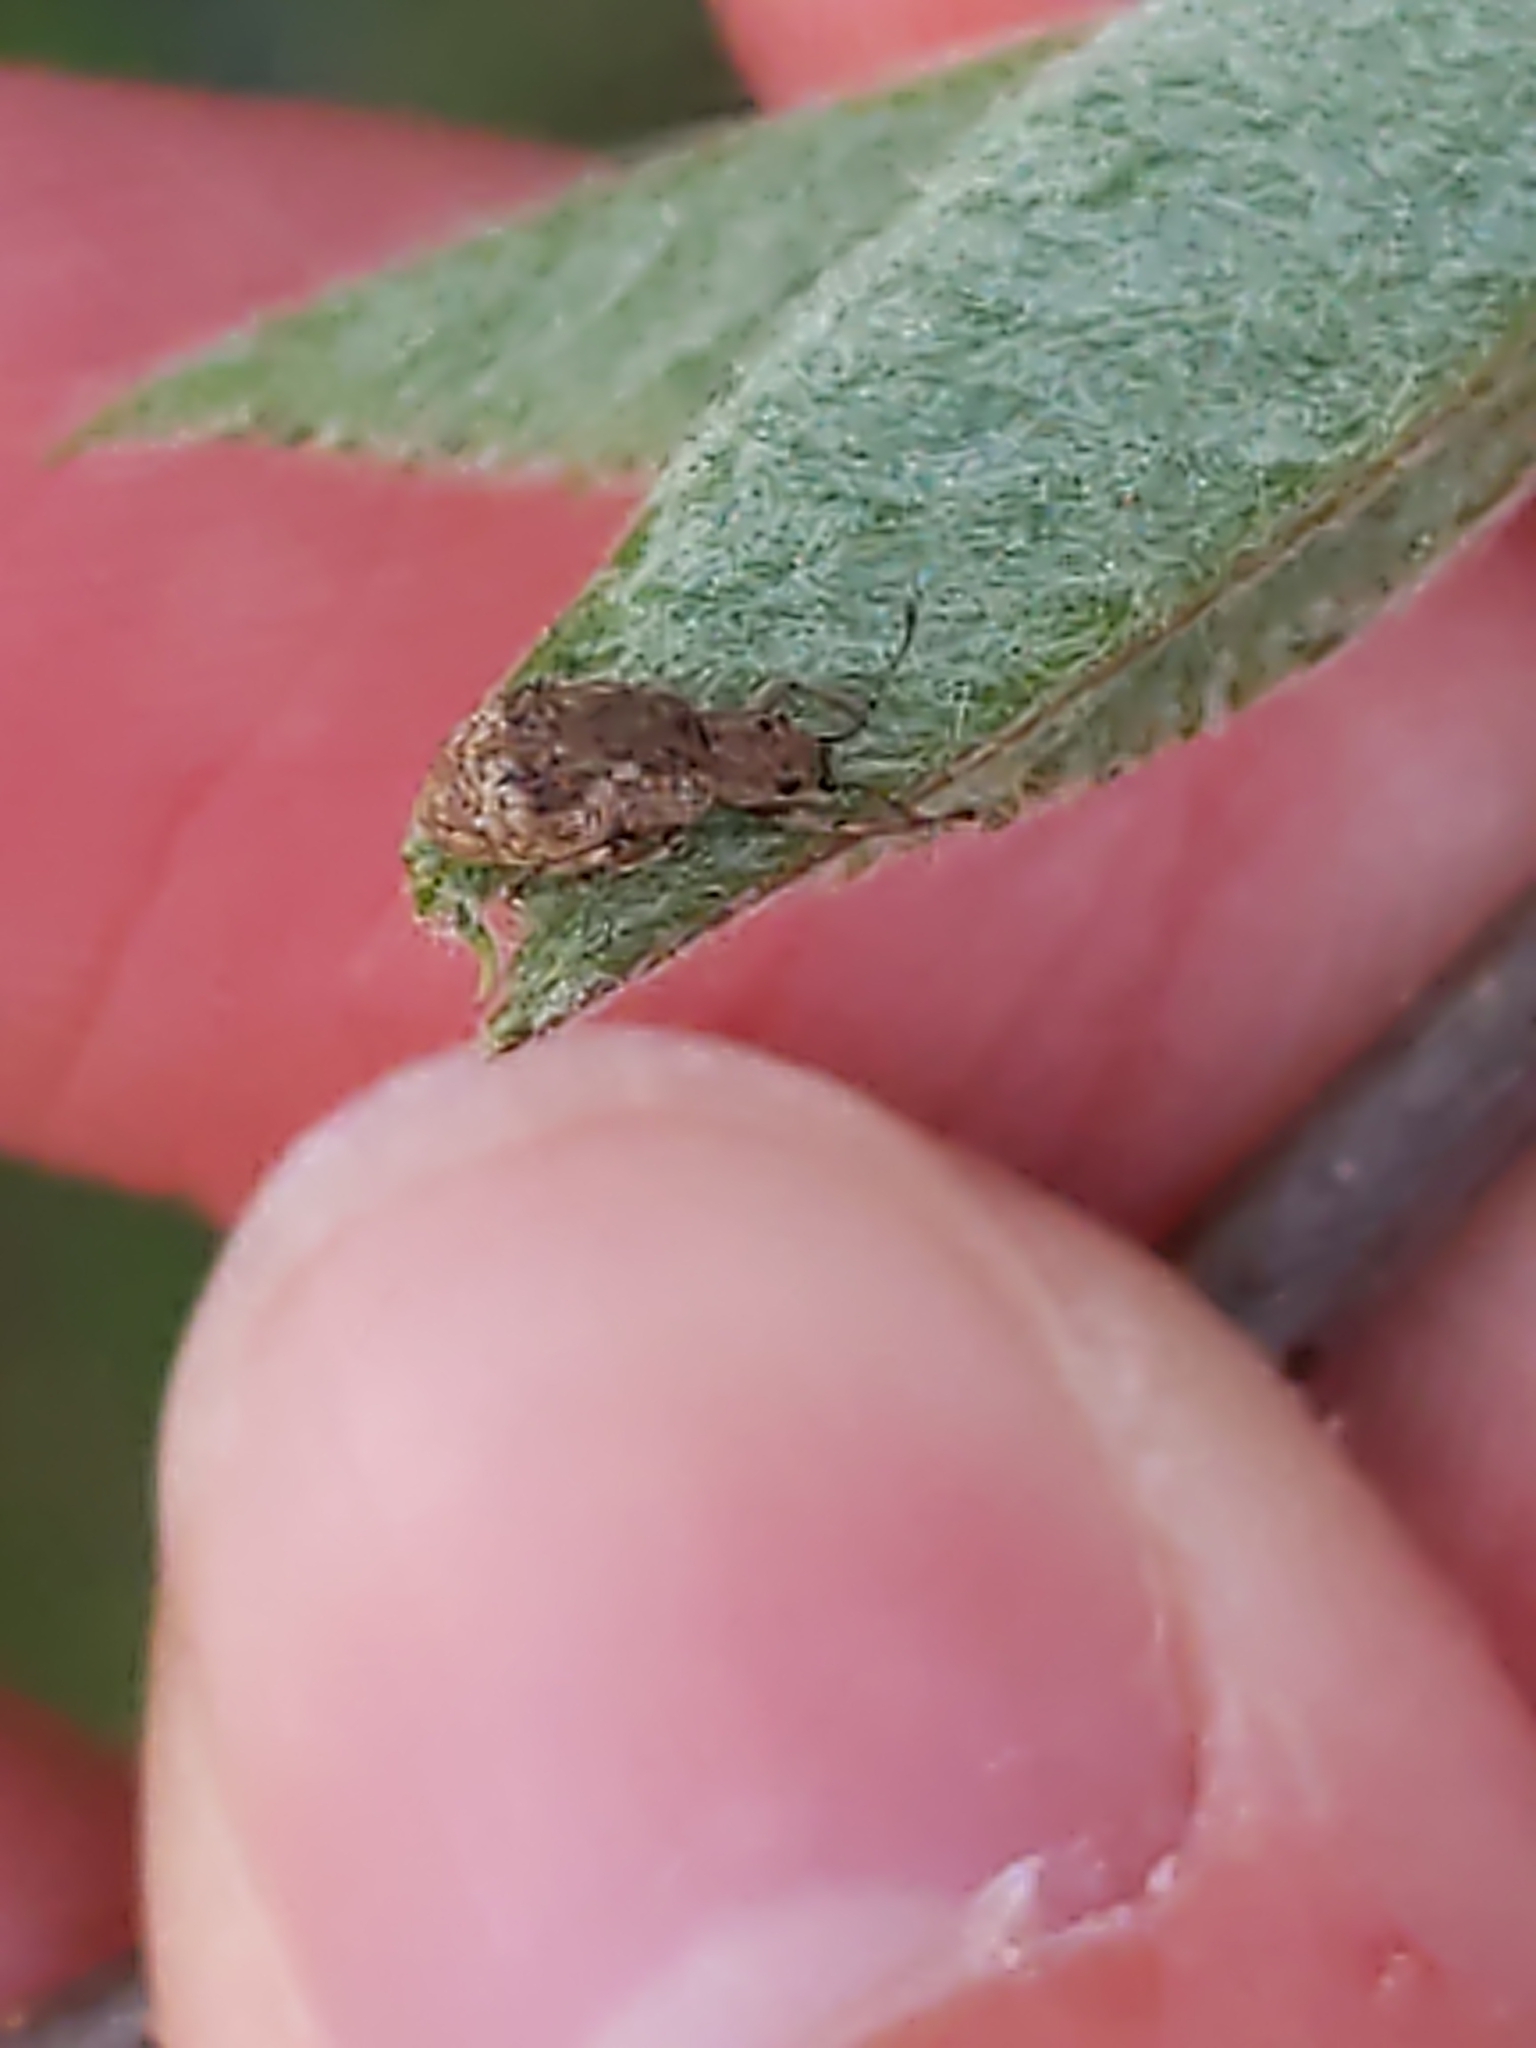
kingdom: Animalia
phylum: Arthropoda
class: Insecta
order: Coleoptera
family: Curculionidae
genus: Pseudoedophrys
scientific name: Pseudoedophrys hilleri
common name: Weevil
